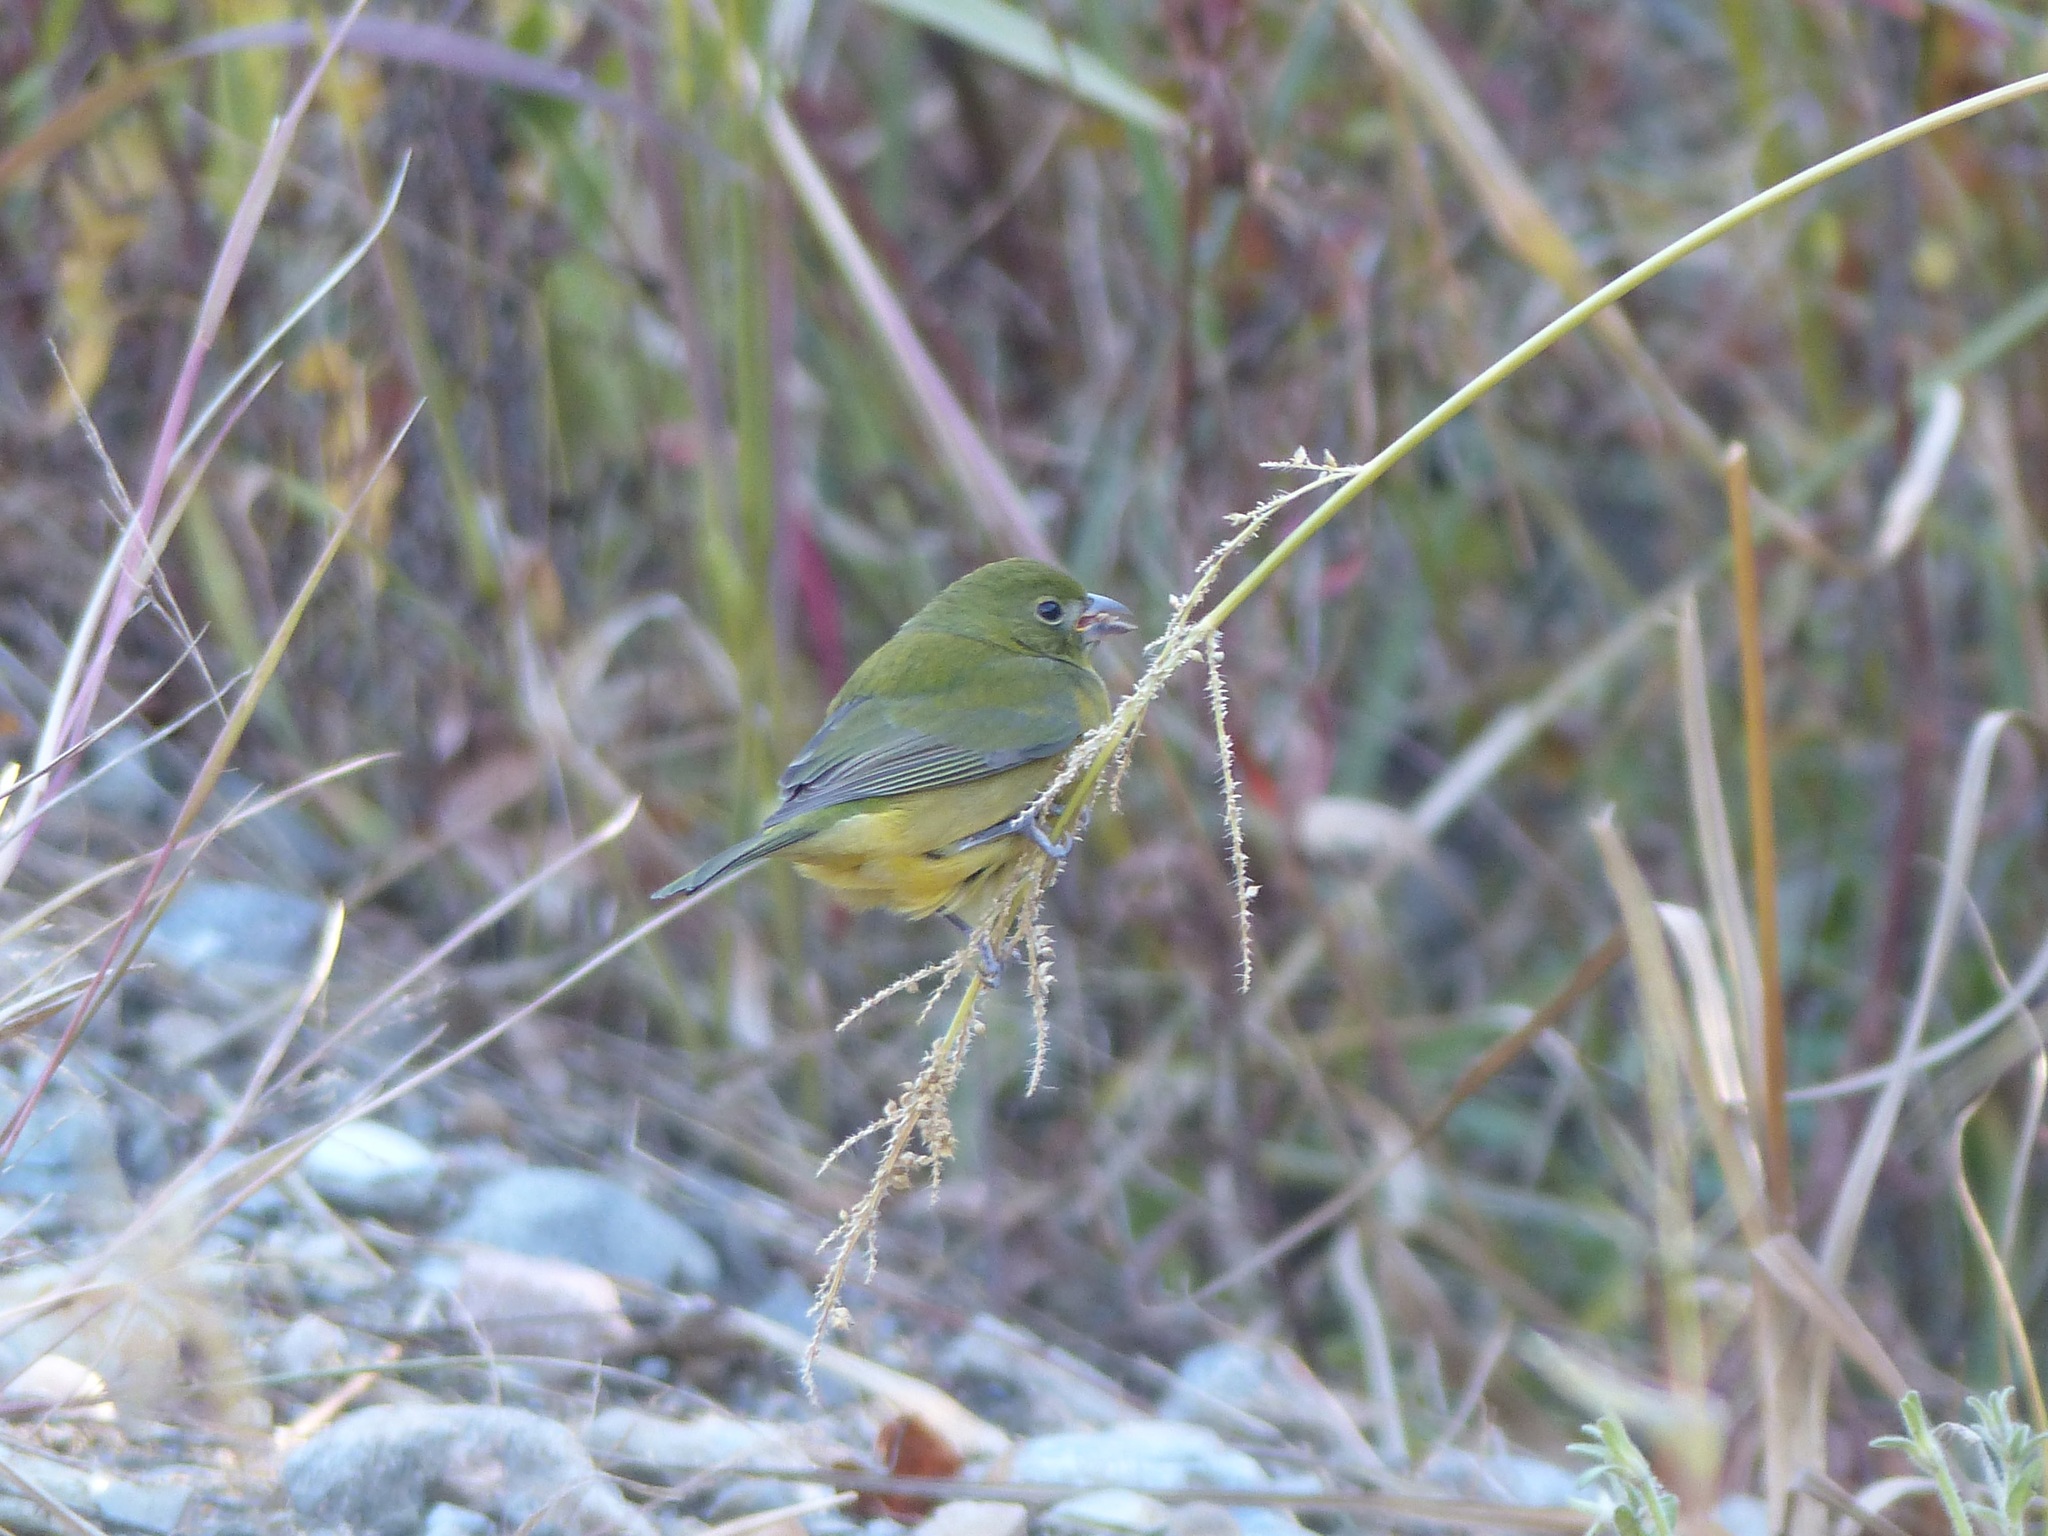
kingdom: Animalia
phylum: Chordata
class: Aves
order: Passeriformes
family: Cardinalidae
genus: Passerina
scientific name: Passerina ciris
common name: Painted bunting
